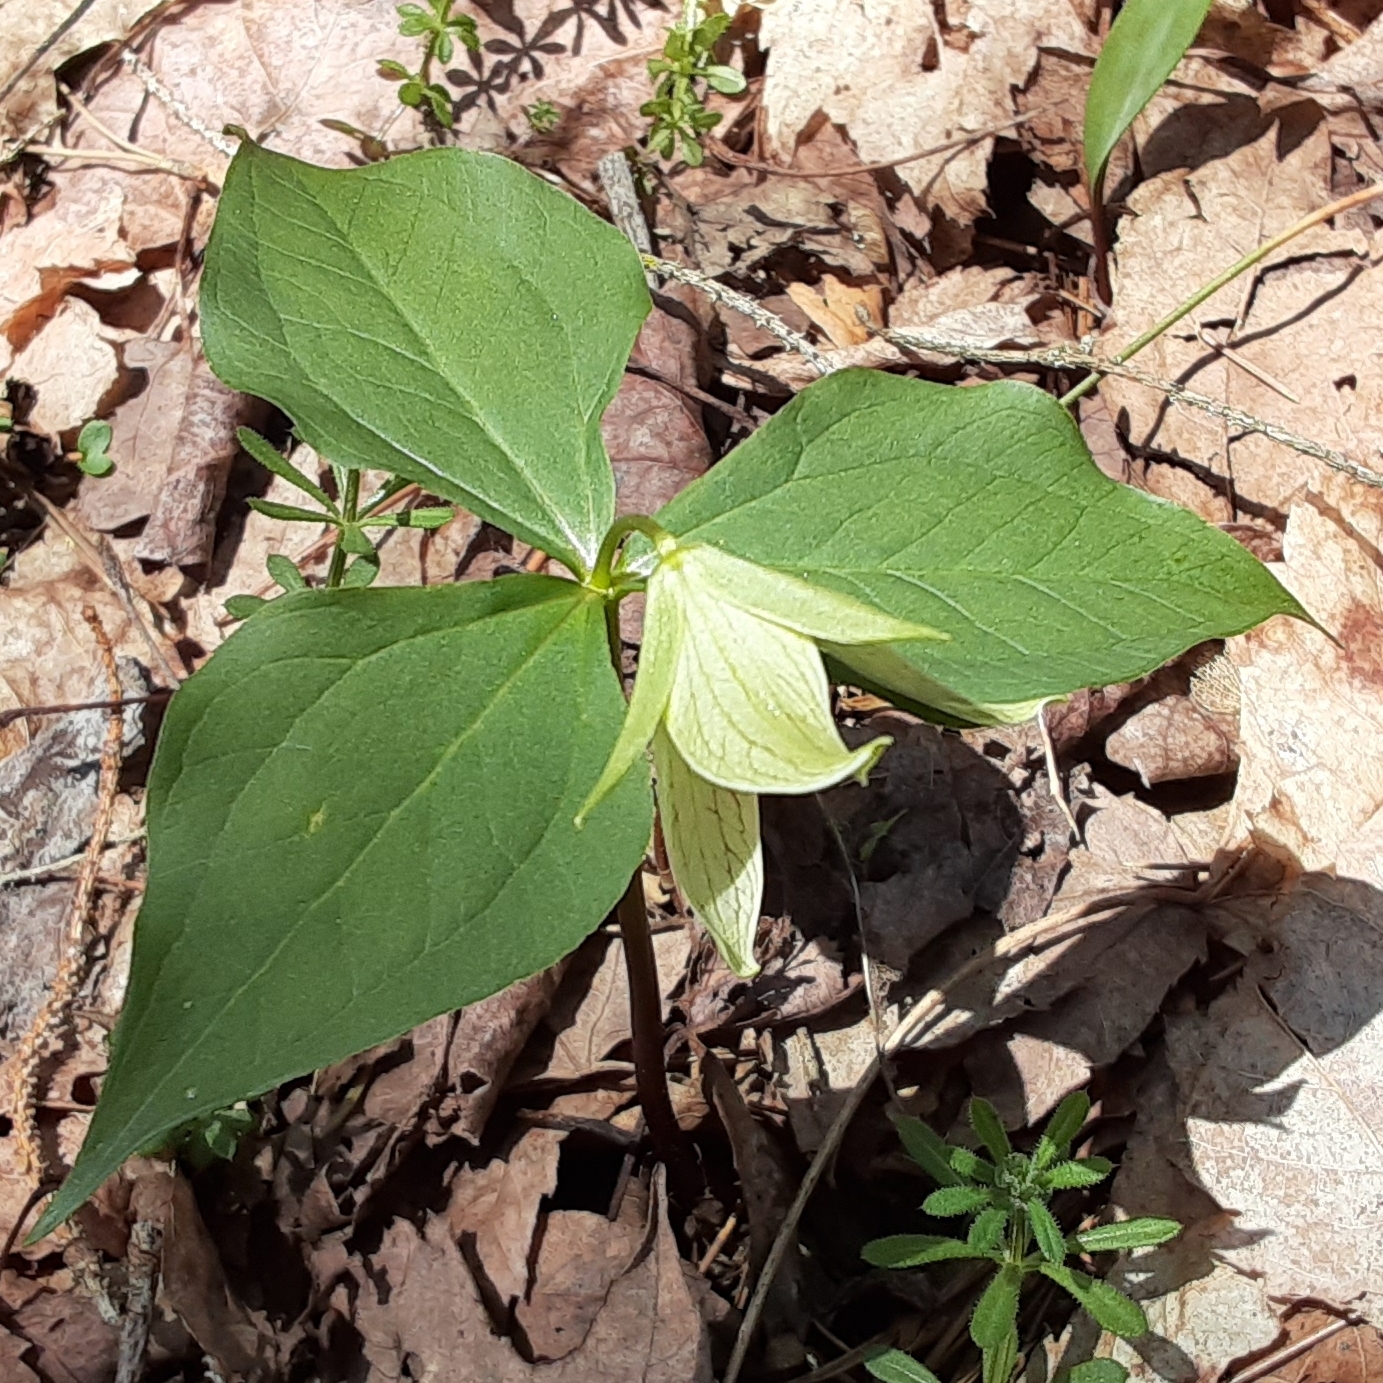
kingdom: Plantae
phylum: Tracheophyta
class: Liliopsida
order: Liliales
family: Melanthiaceae
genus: Trillium
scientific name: Trillium erectum
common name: Purple trillium
